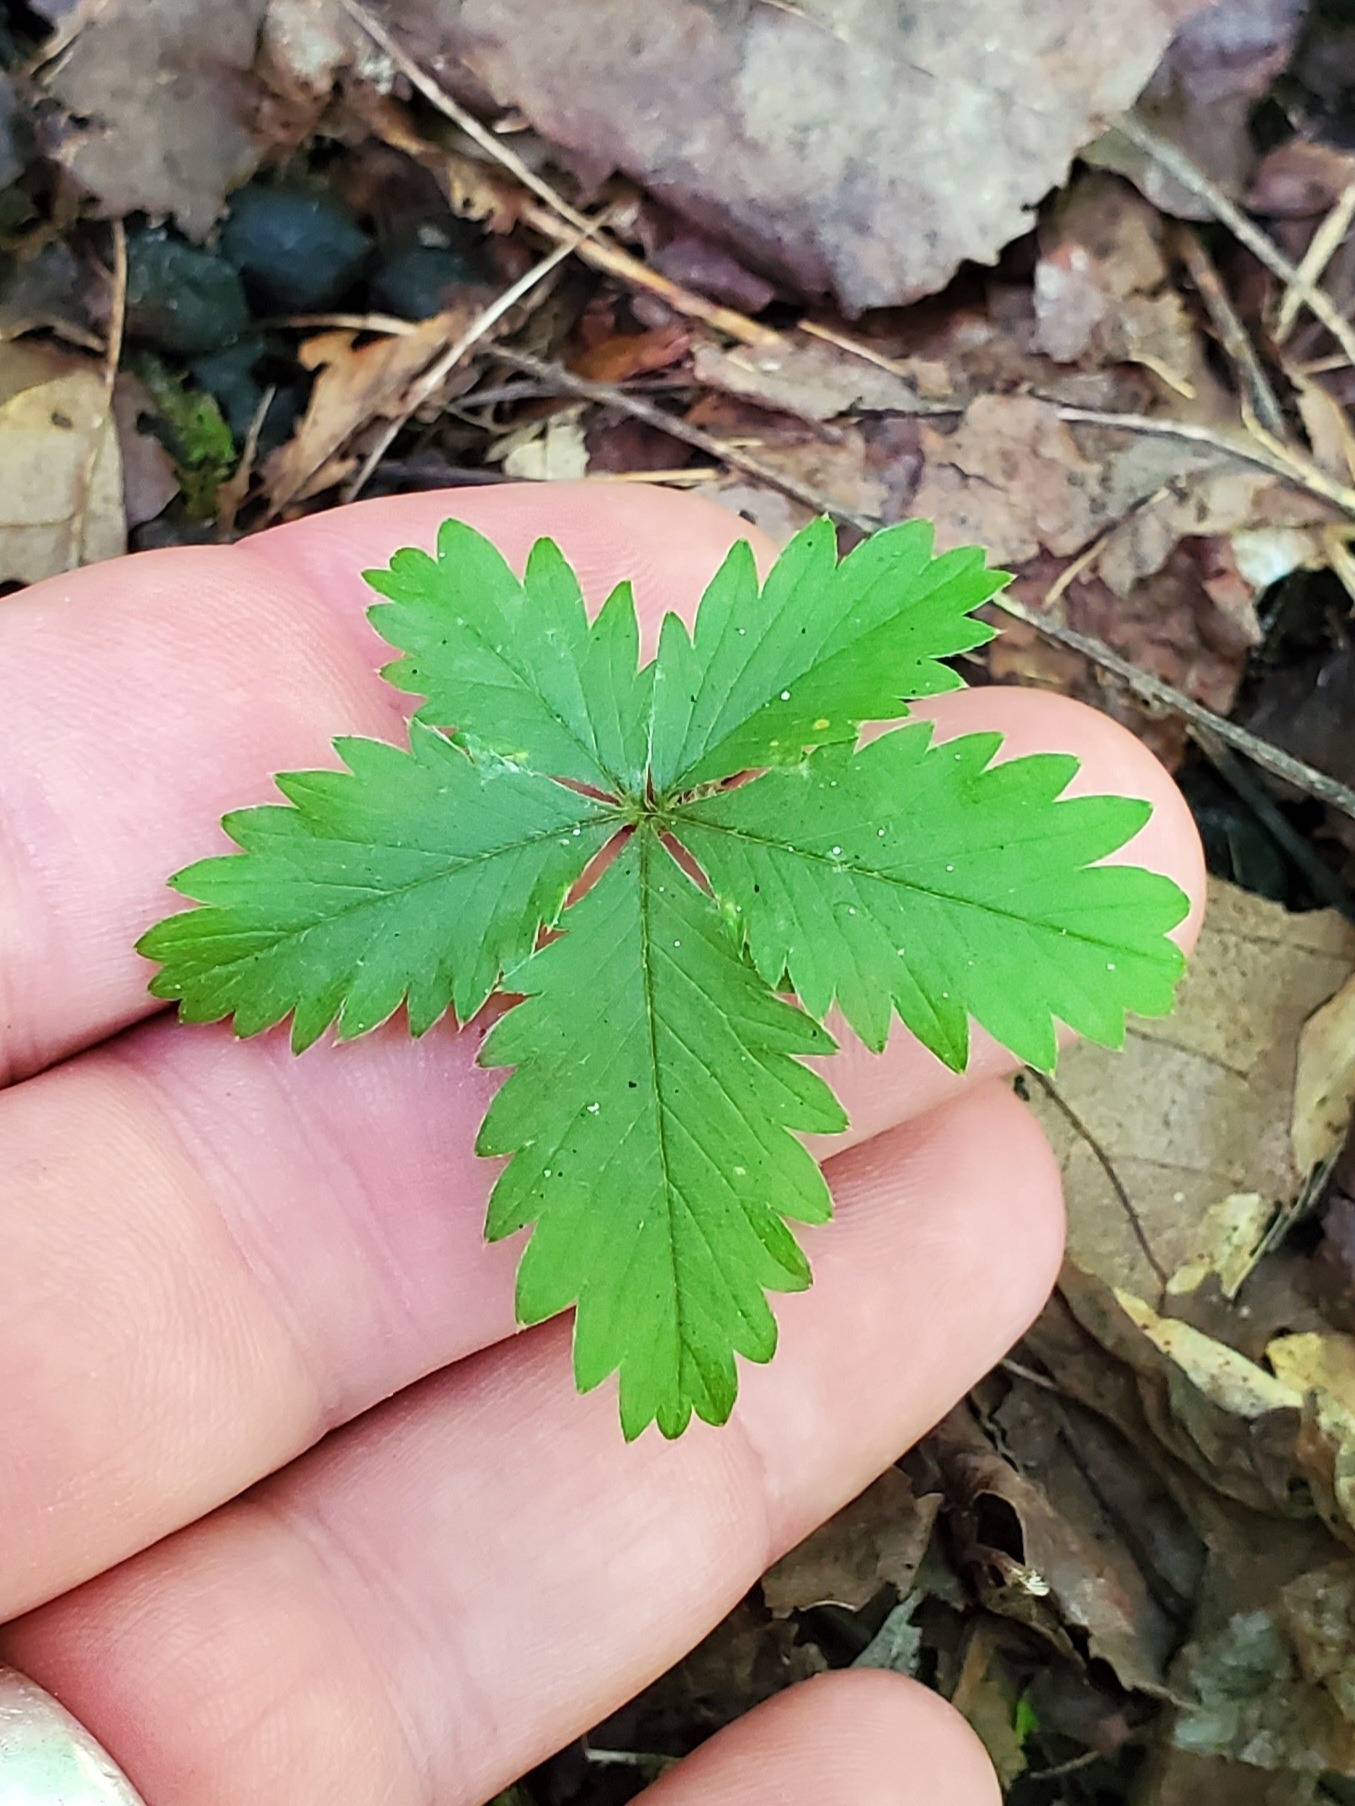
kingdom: Plantae
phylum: Tracheophyta
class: Magnoliopsida
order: Rosales
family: Rosaceae
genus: Potentilla
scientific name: Potentilla
